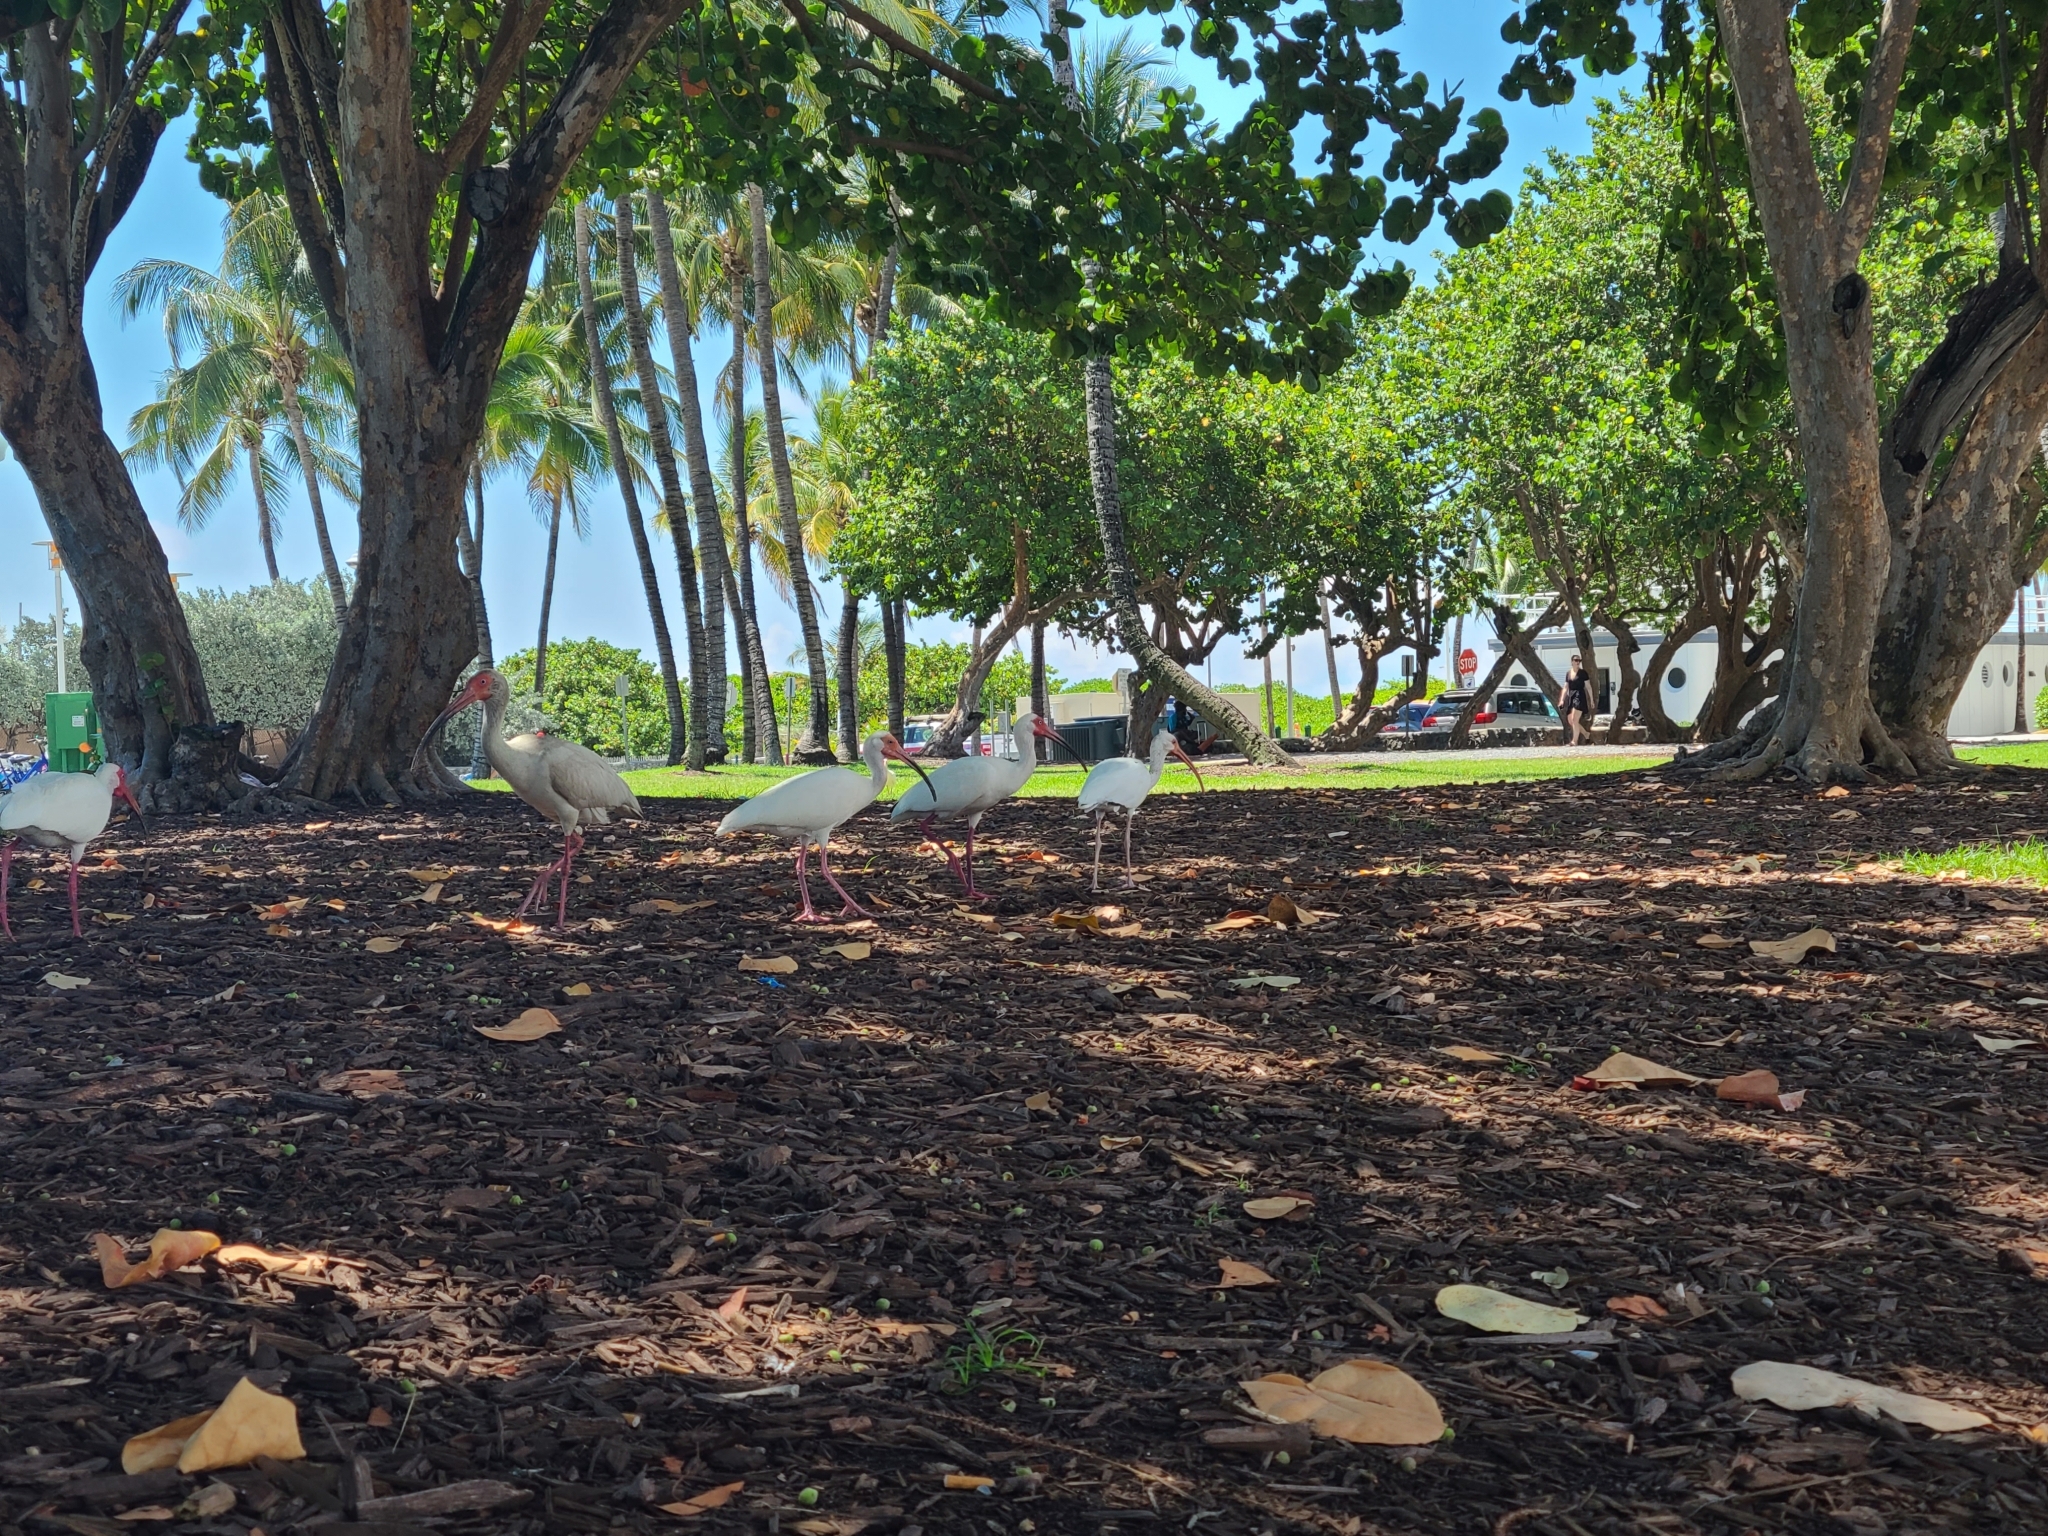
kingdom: Animalia
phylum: Chordata
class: Aves
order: Pelecaniformes
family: Threskiornithidae
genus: Eudocimus
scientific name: Eudocimus albus
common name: White ibis
